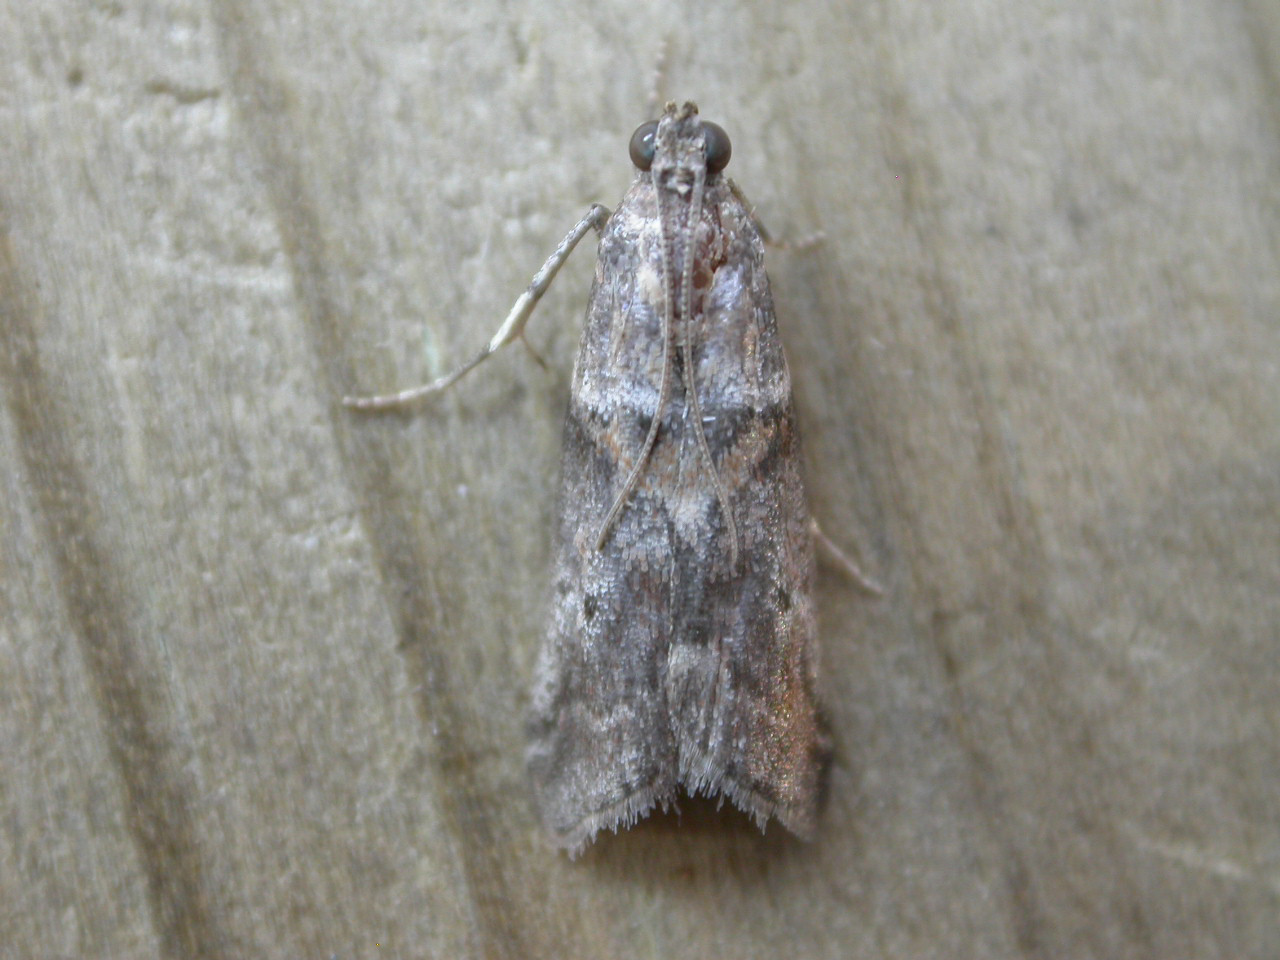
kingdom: Animalia
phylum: Arthropoda
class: Insecta
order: Lepidoptera
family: Pyralidae
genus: Acrobasis
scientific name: Acrobasis consociella
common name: Broad-barred knot-horn
